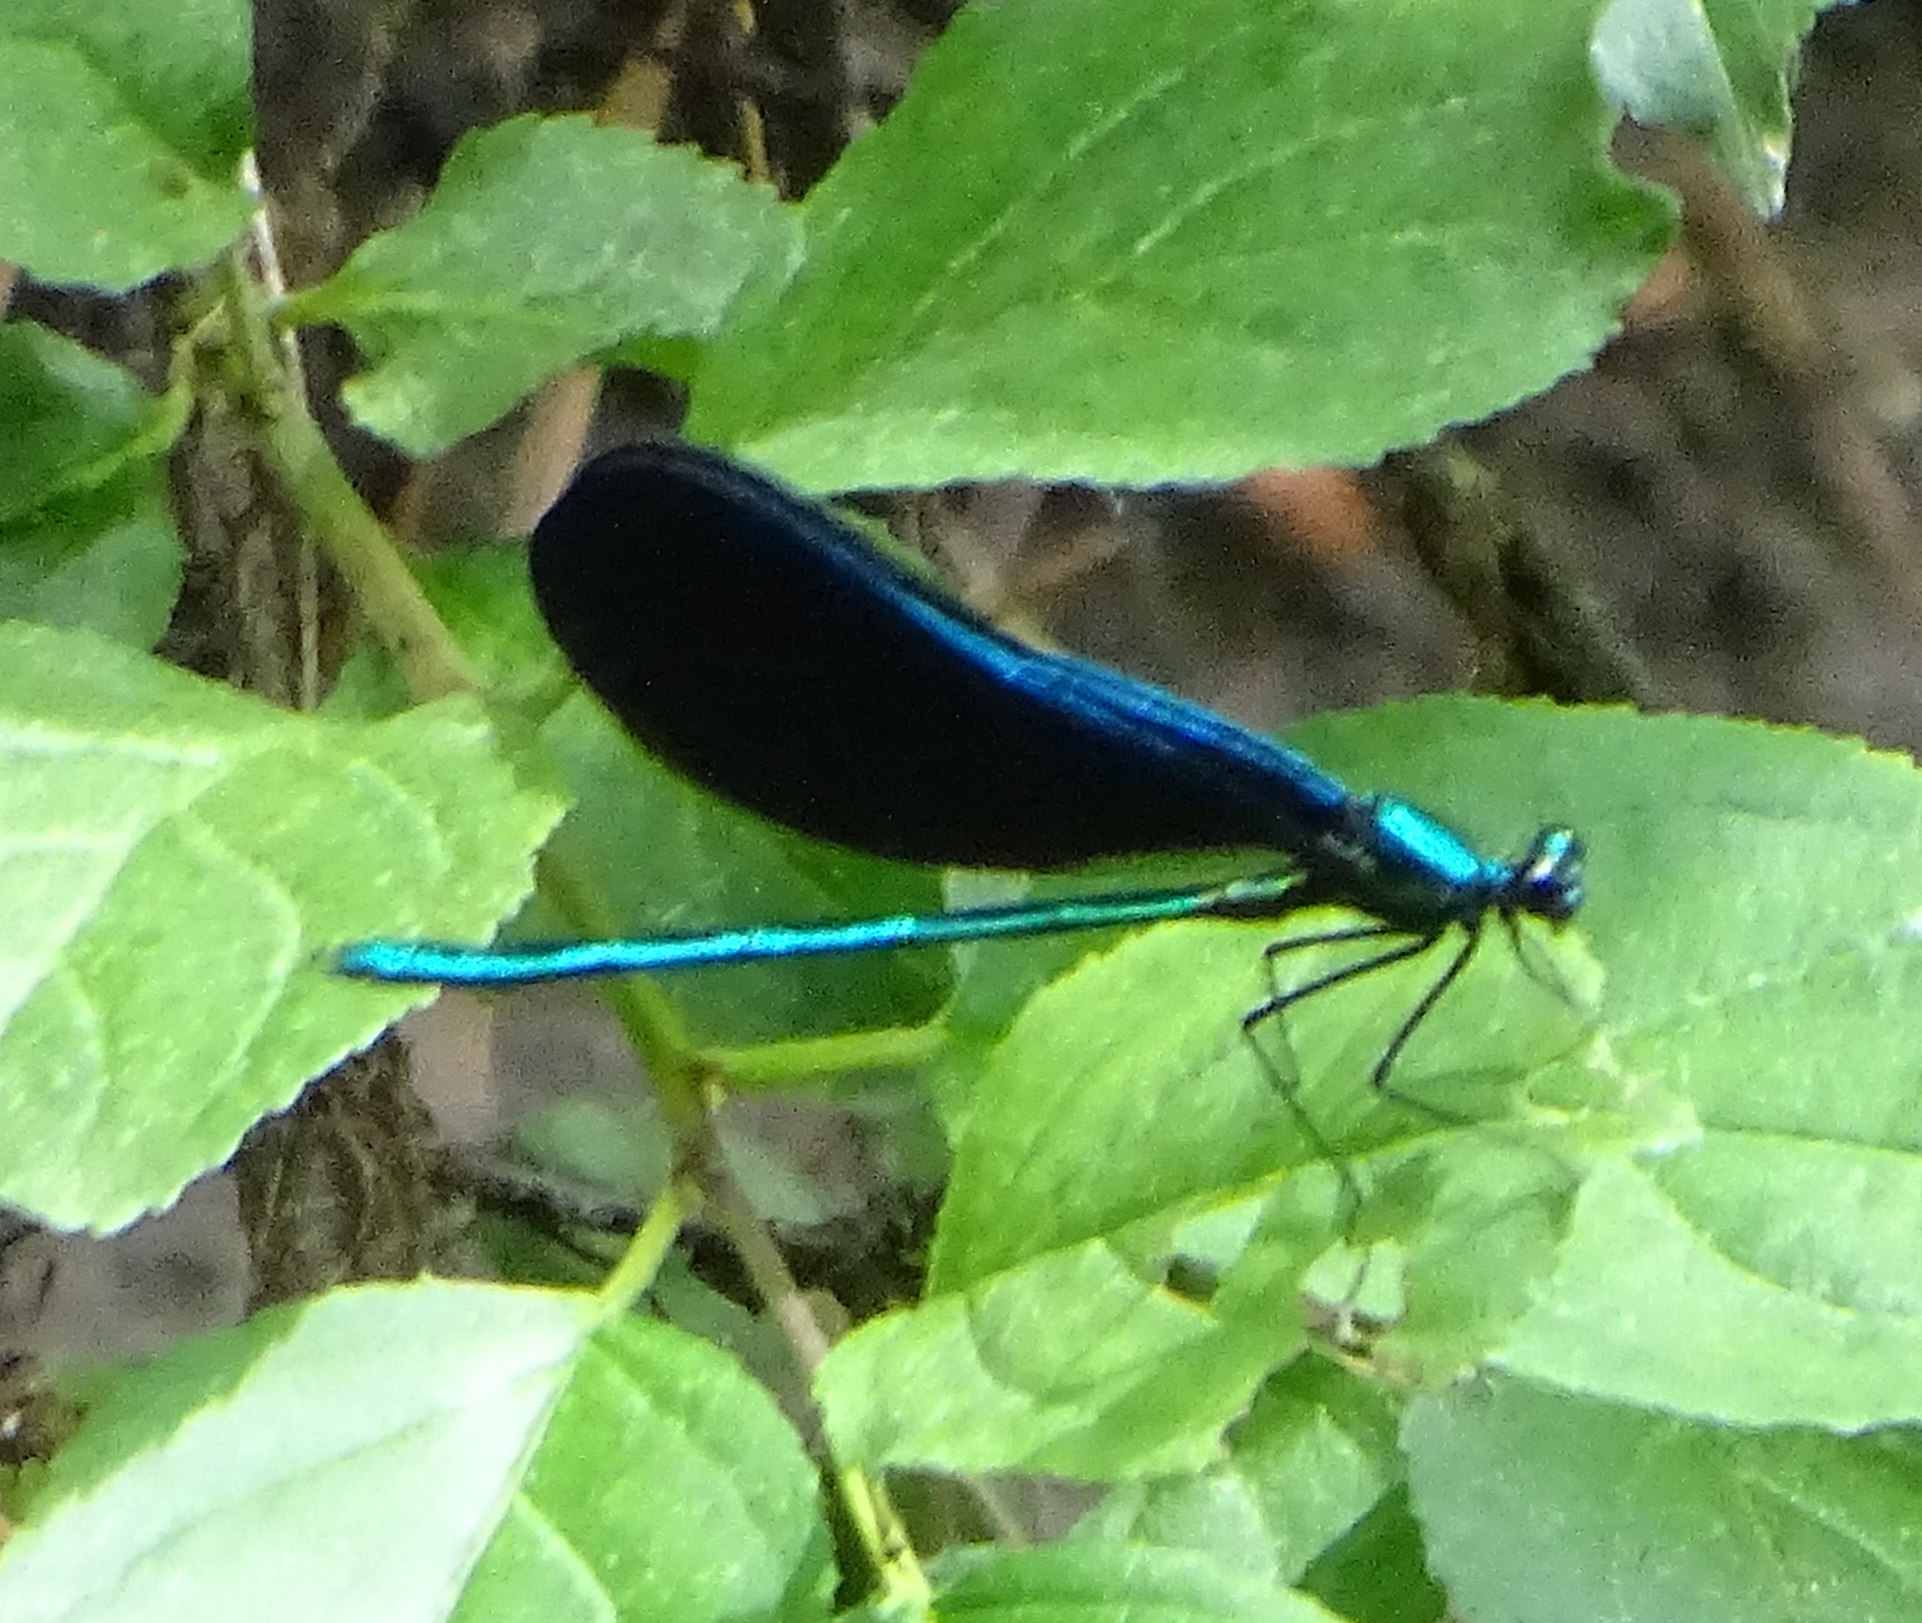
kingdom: Animalia
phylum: Arthropoda
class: Insecta
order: Odonata
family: Calopterygidae
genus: Calopteryx
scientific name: Calopteryx maculata
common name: Ebony jewelwing
